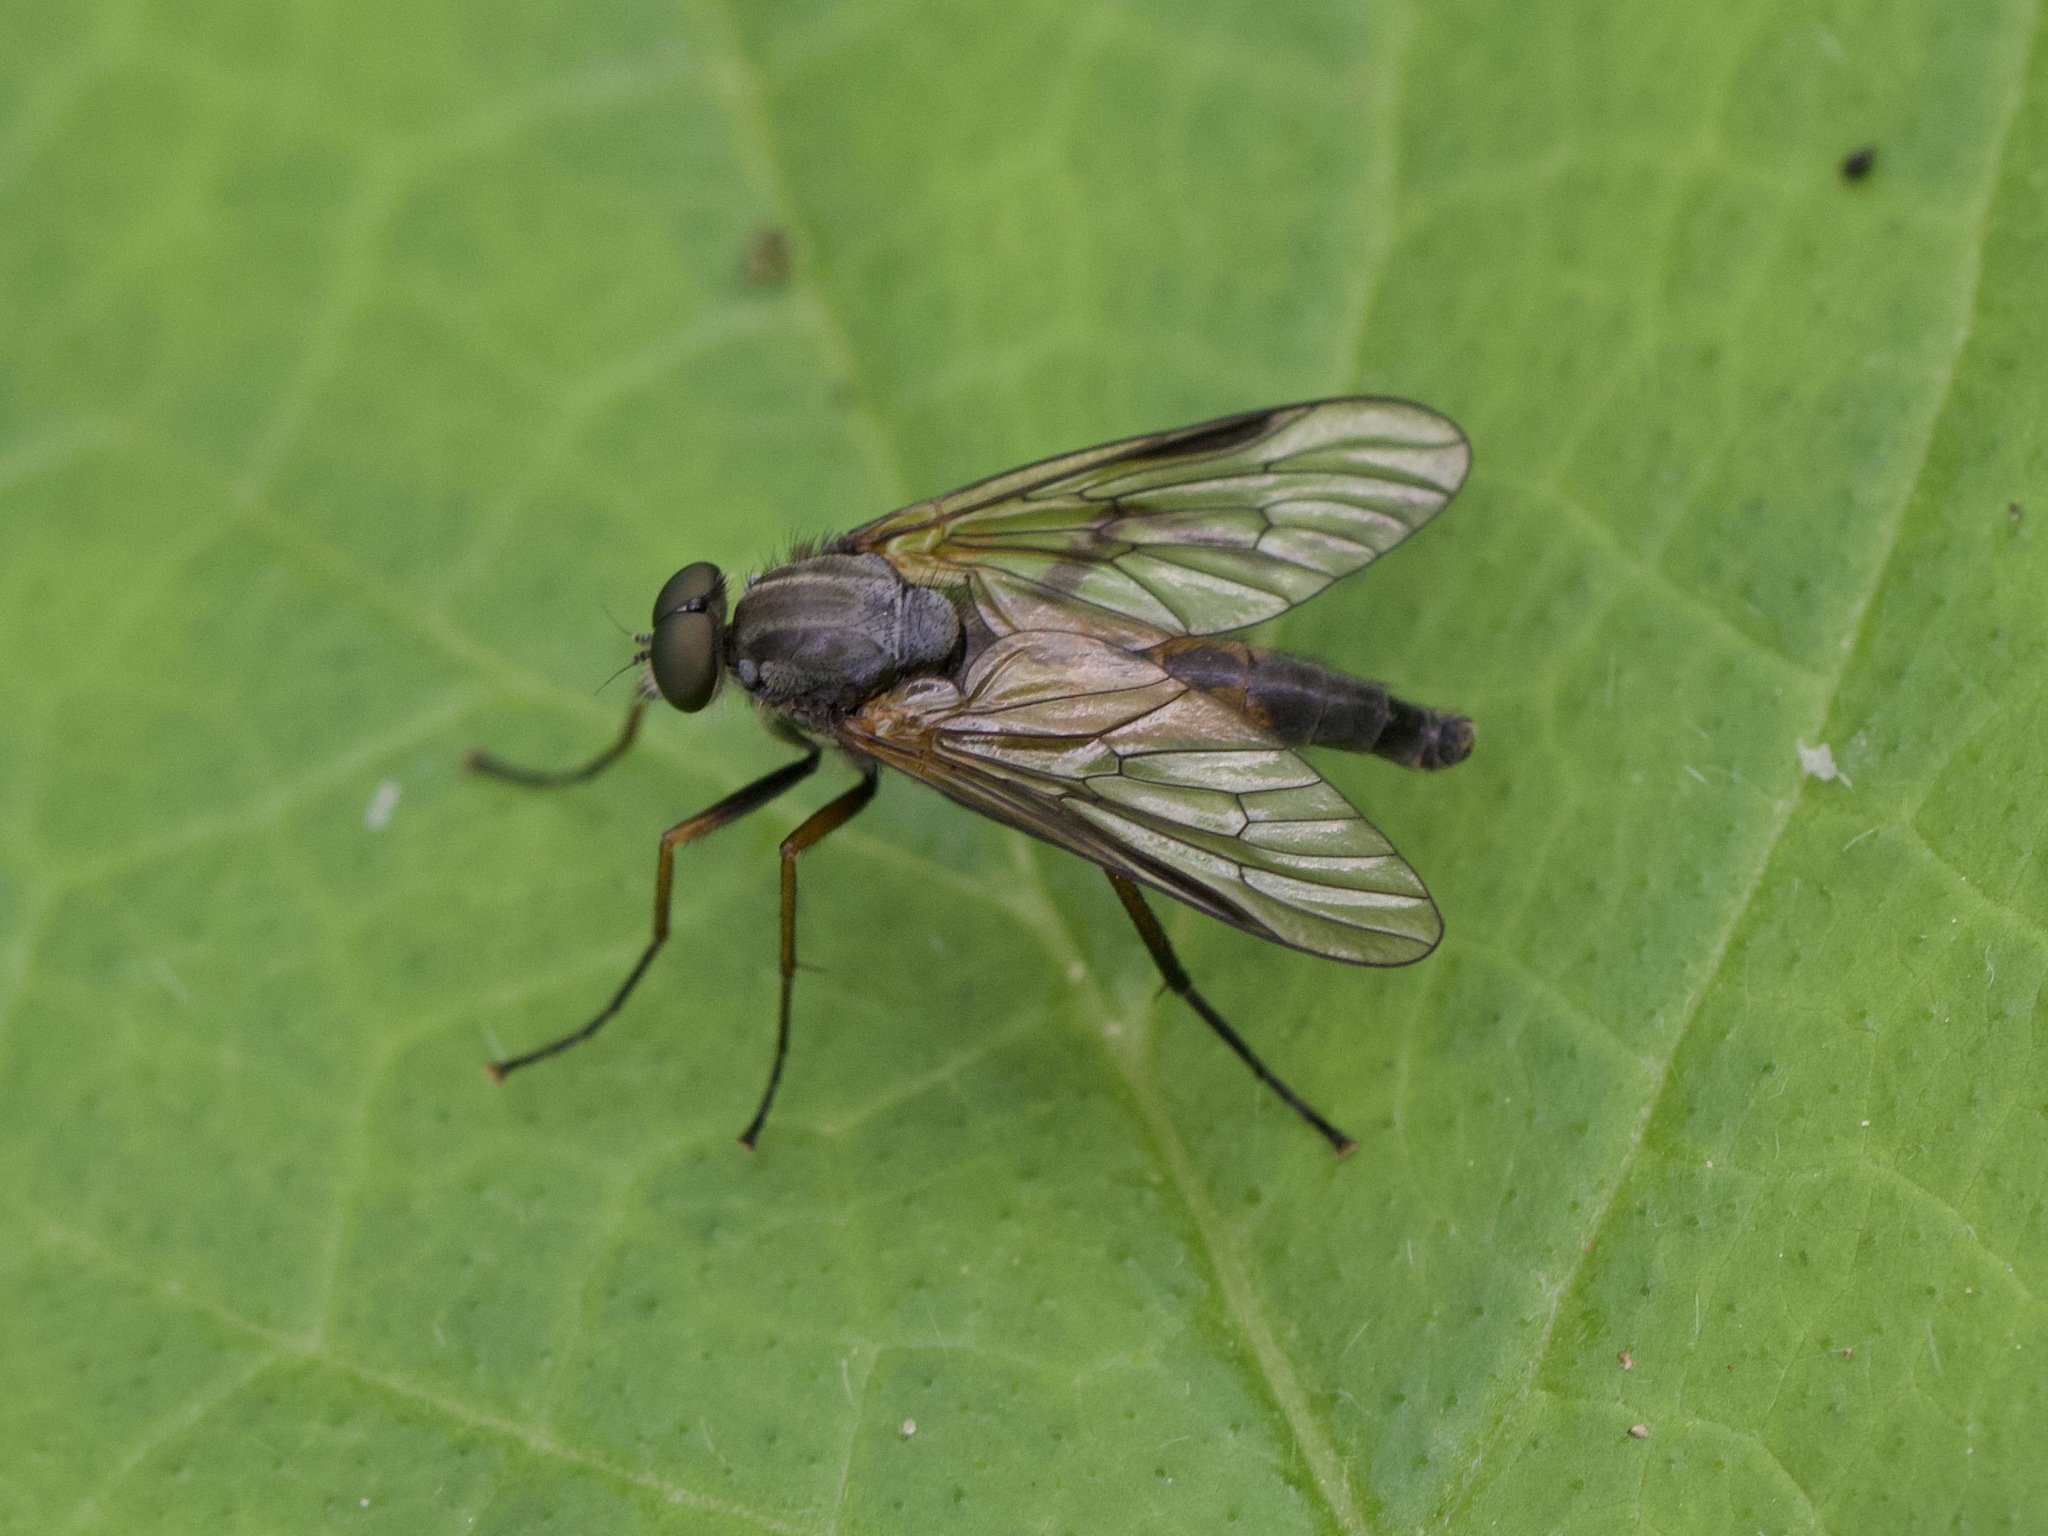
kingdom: Animalia
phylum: Arthropoda
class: Insecta
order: Diptera
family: Rhagionidae
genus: Rhagio
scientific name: Rhagio notatus
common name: Large fleck-winged snipefly
